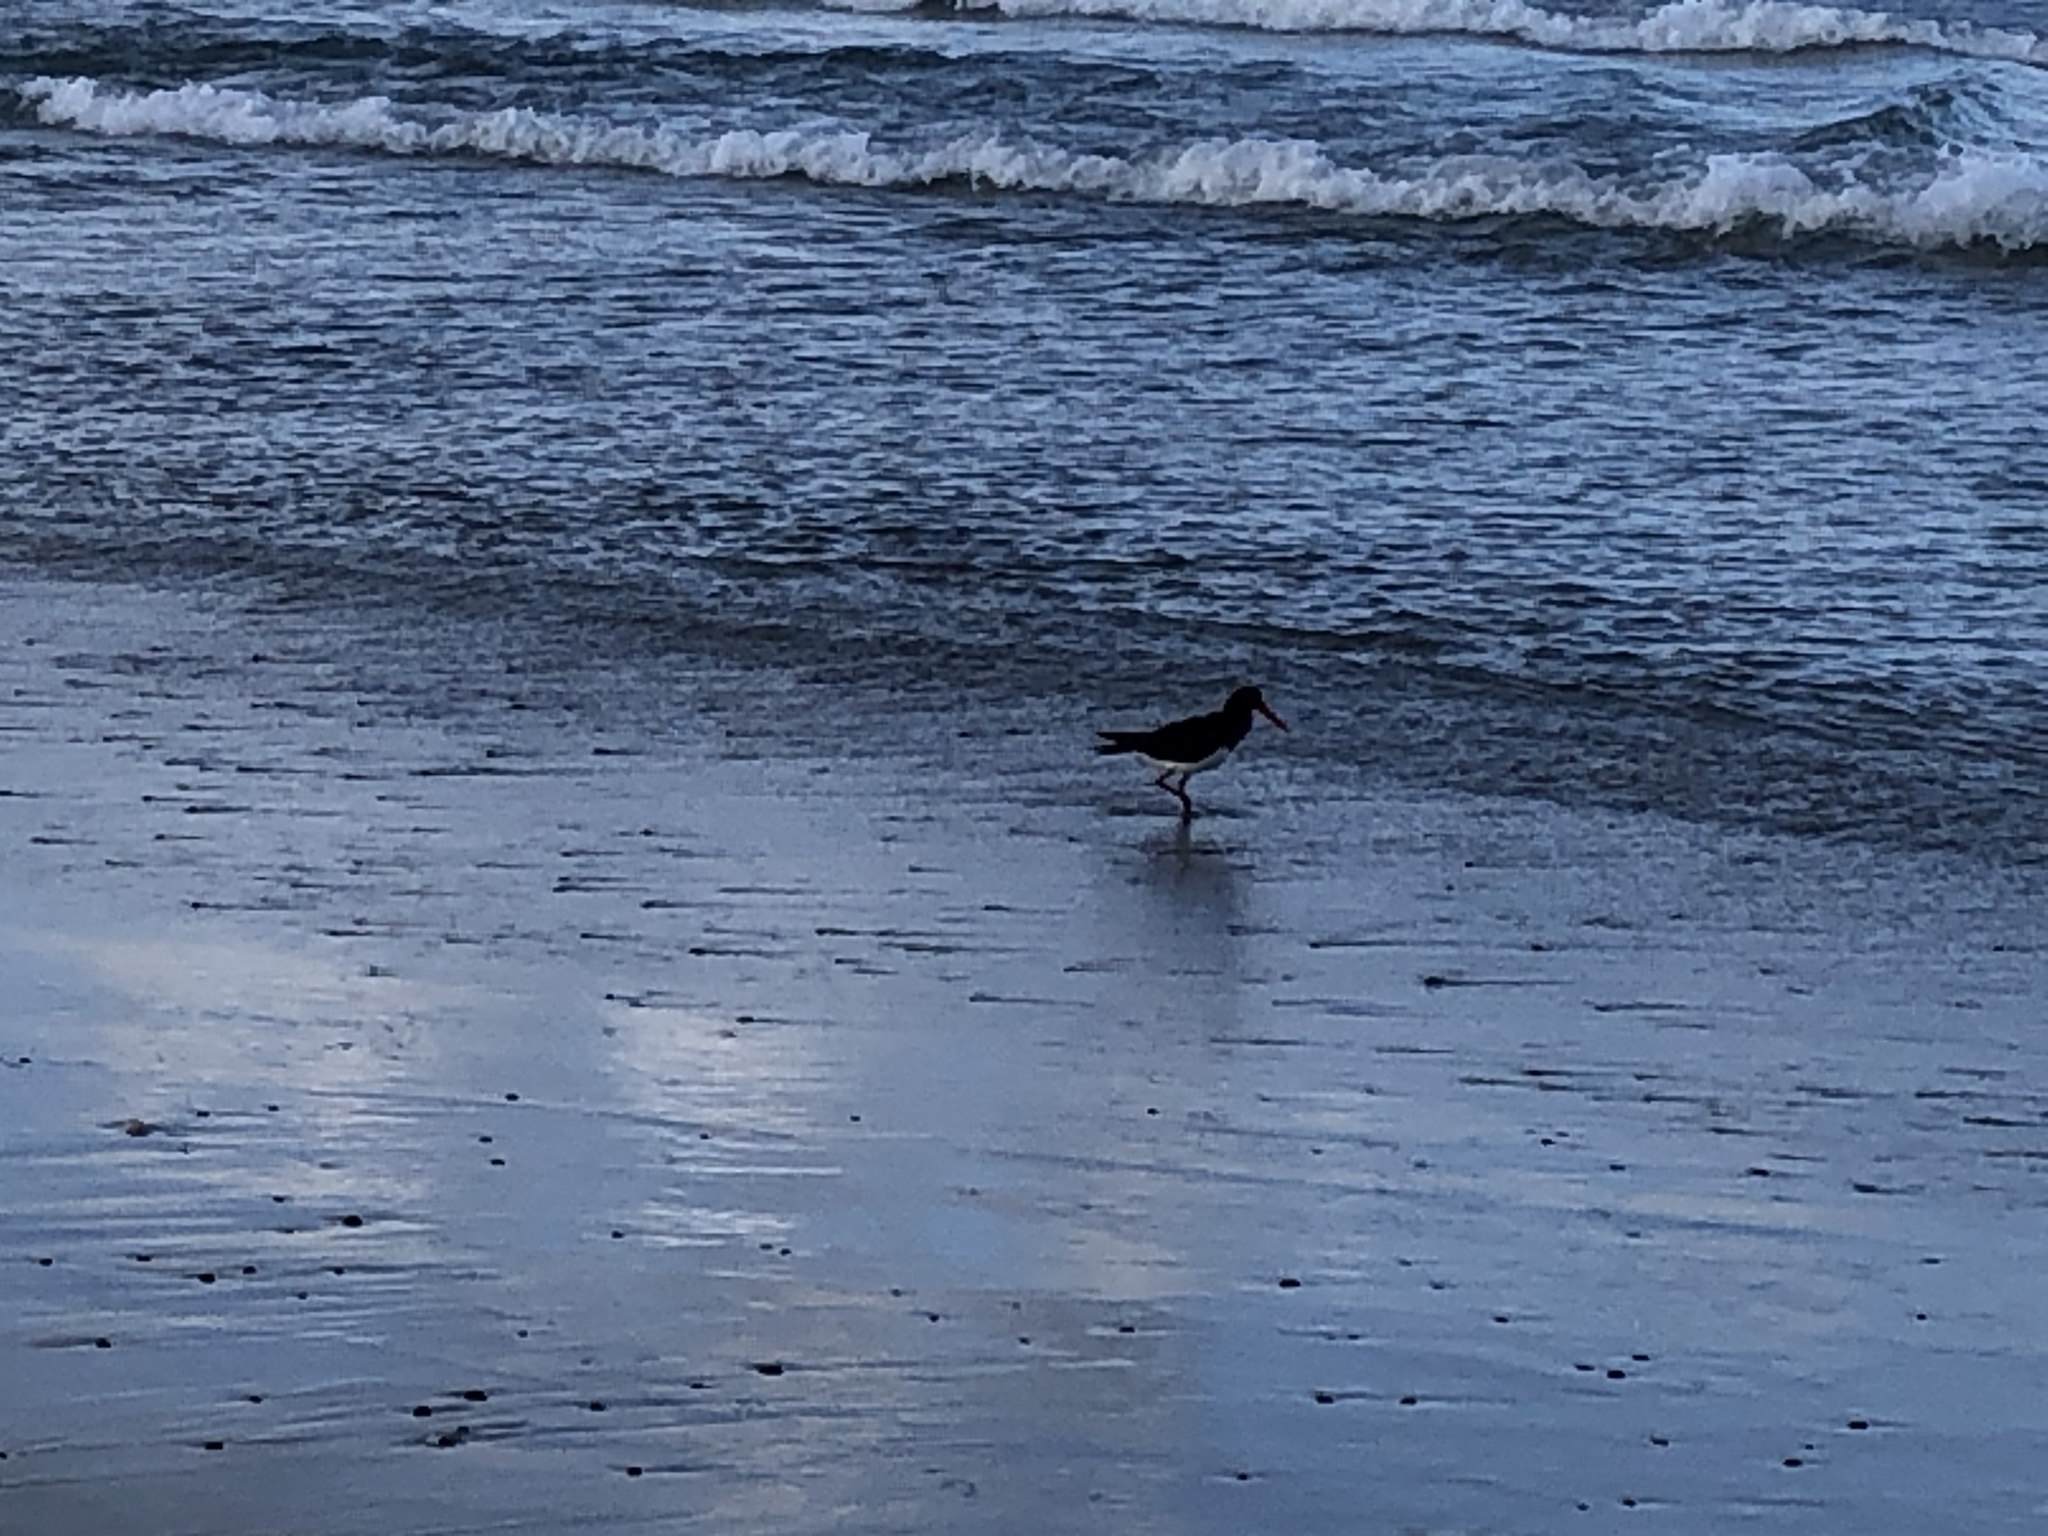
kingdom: Animalia
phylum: Chordata
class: Aves
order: Charadriiformes
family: Haematopodidae
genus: Haematopus
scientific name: Haematopus longirostris
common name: Pied oystercatcher
